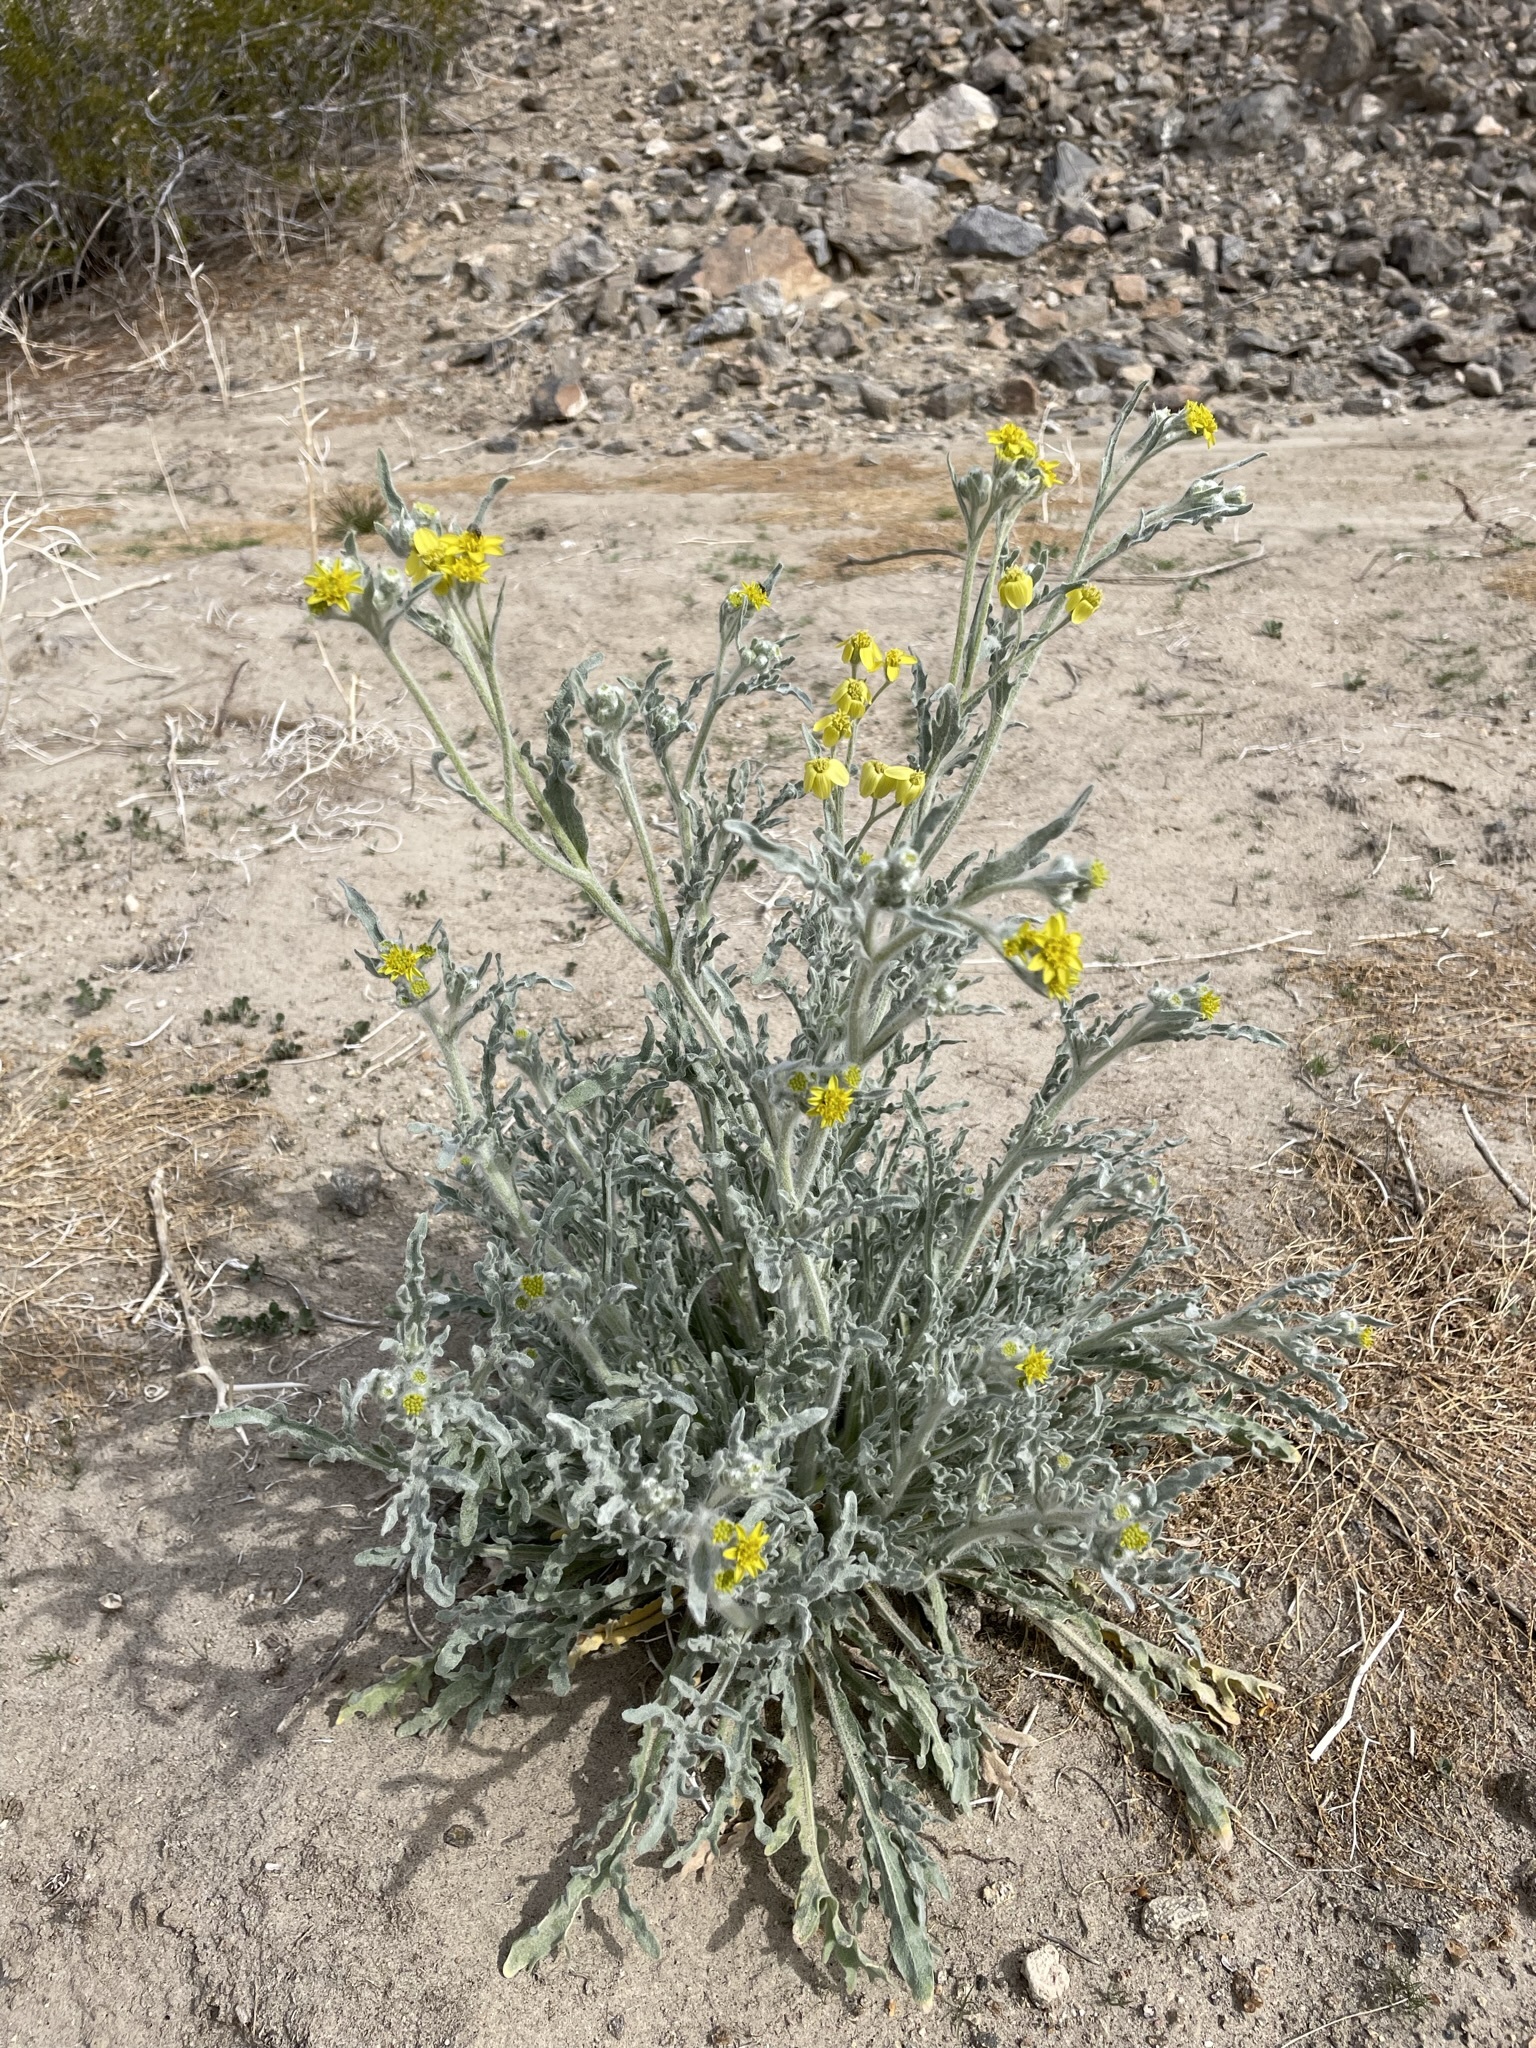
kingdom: Plantae
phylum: Tracheophyta
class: Magnoliopsida
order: Asterales
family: Asteraceae
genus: Baileya
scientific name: Baileya pauciradiata
